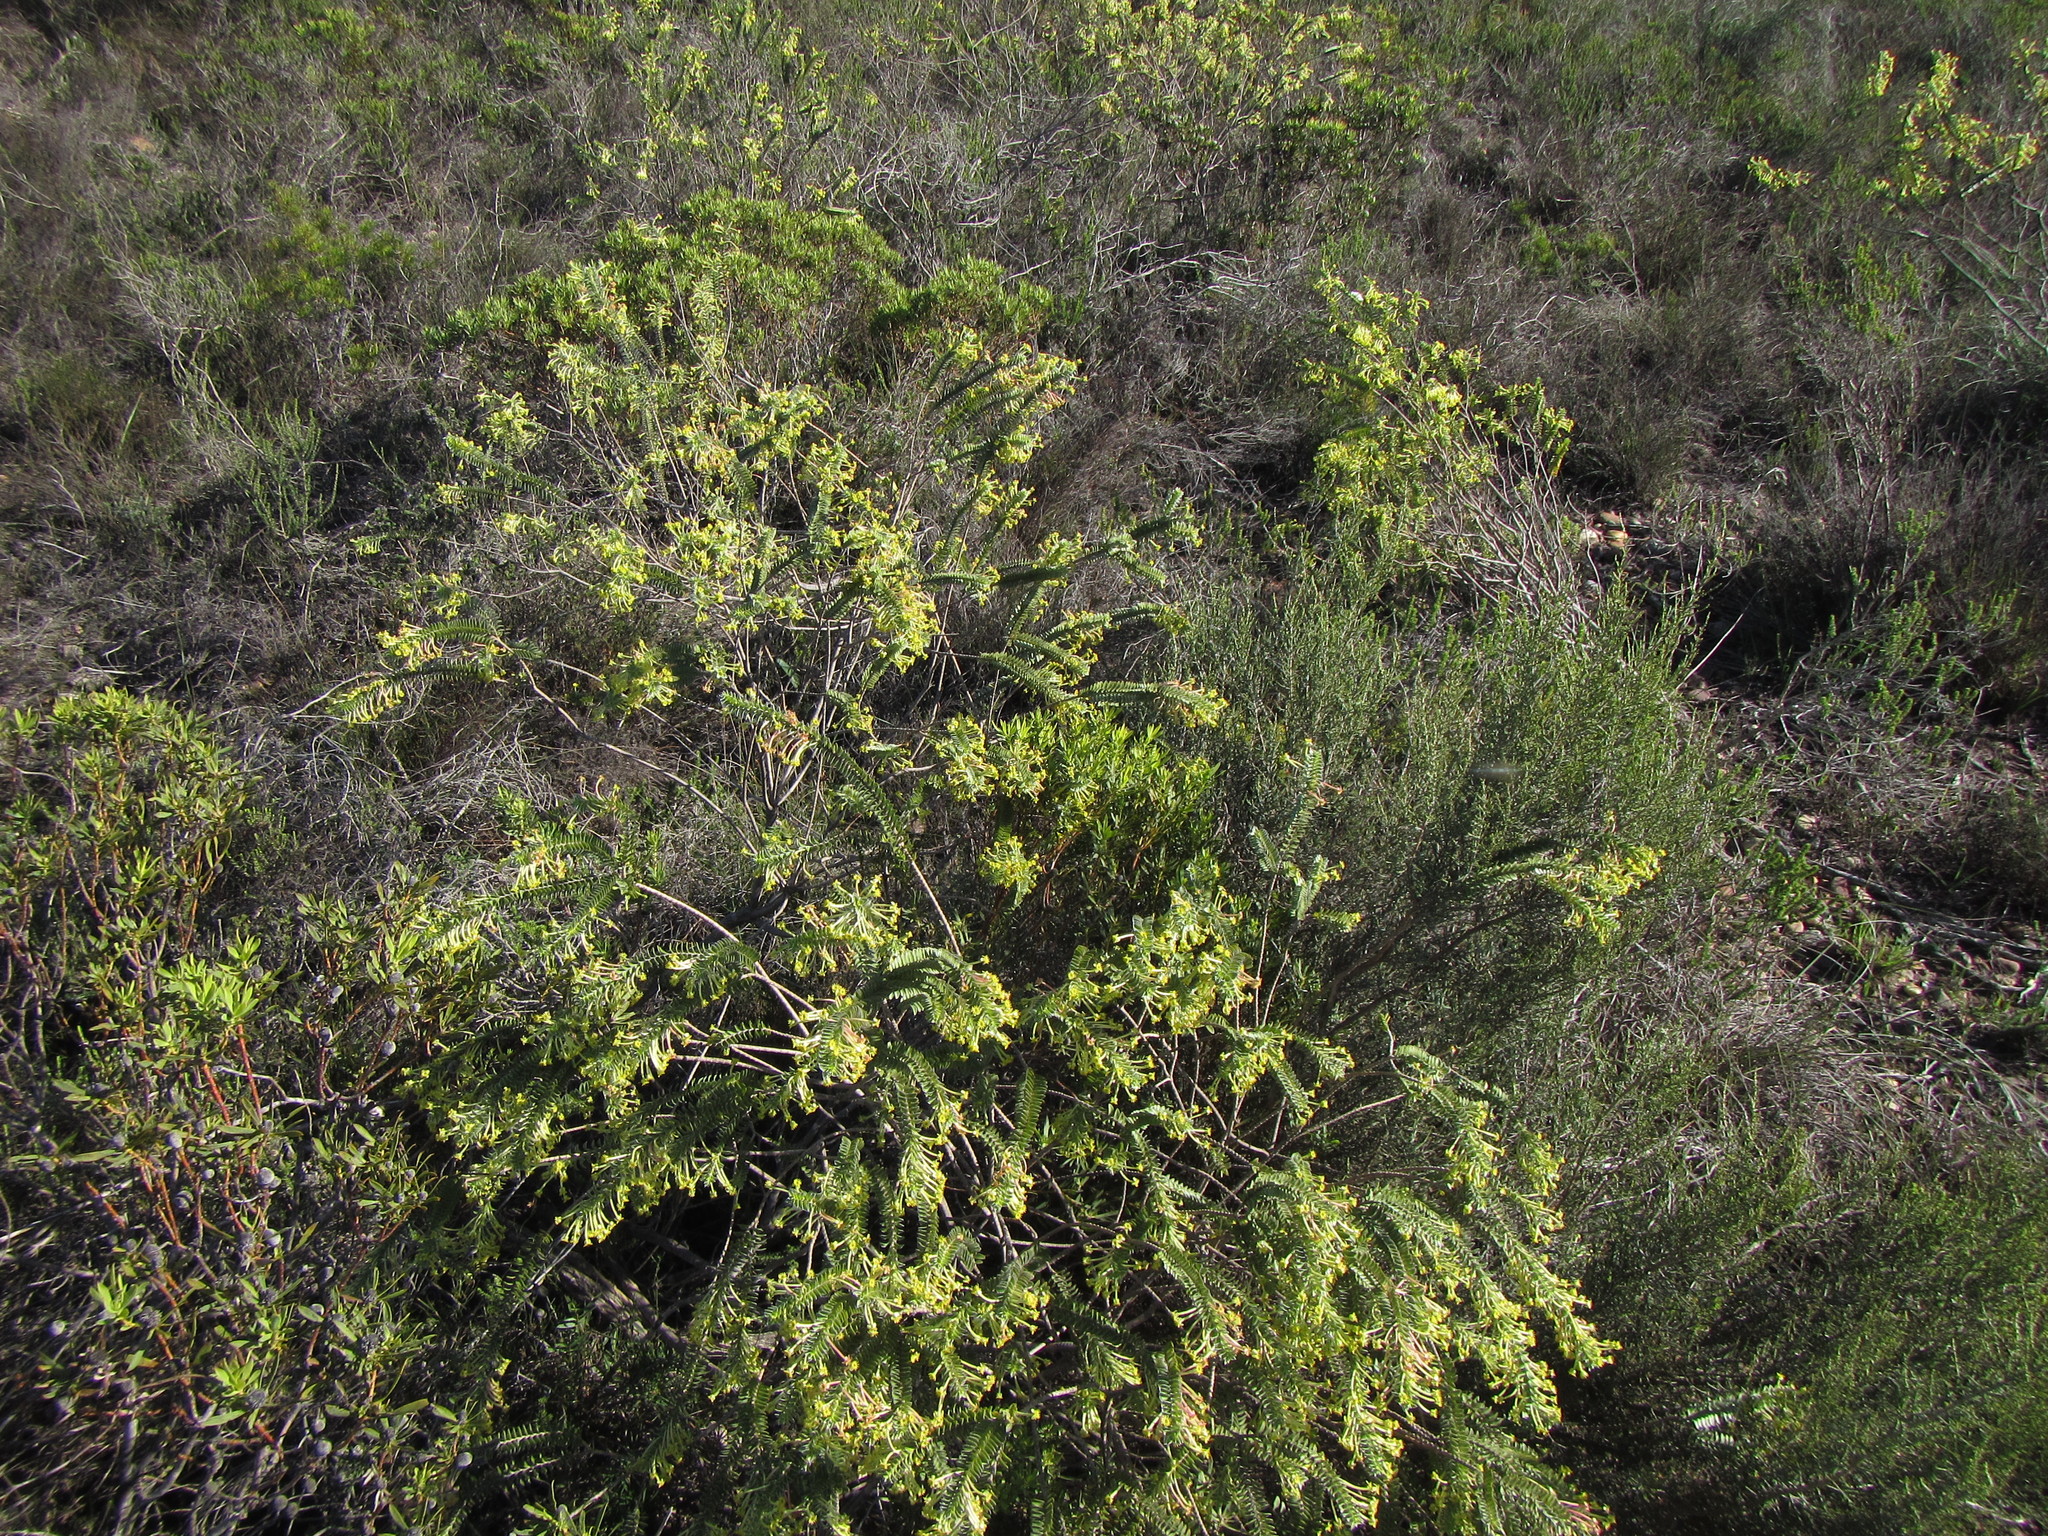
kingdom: Plantae
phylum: Tracheophyta
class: Magnoliopsida
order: Malvales
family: Thymelaeaceae
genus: Struthiola
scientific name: Struthiola argentea
